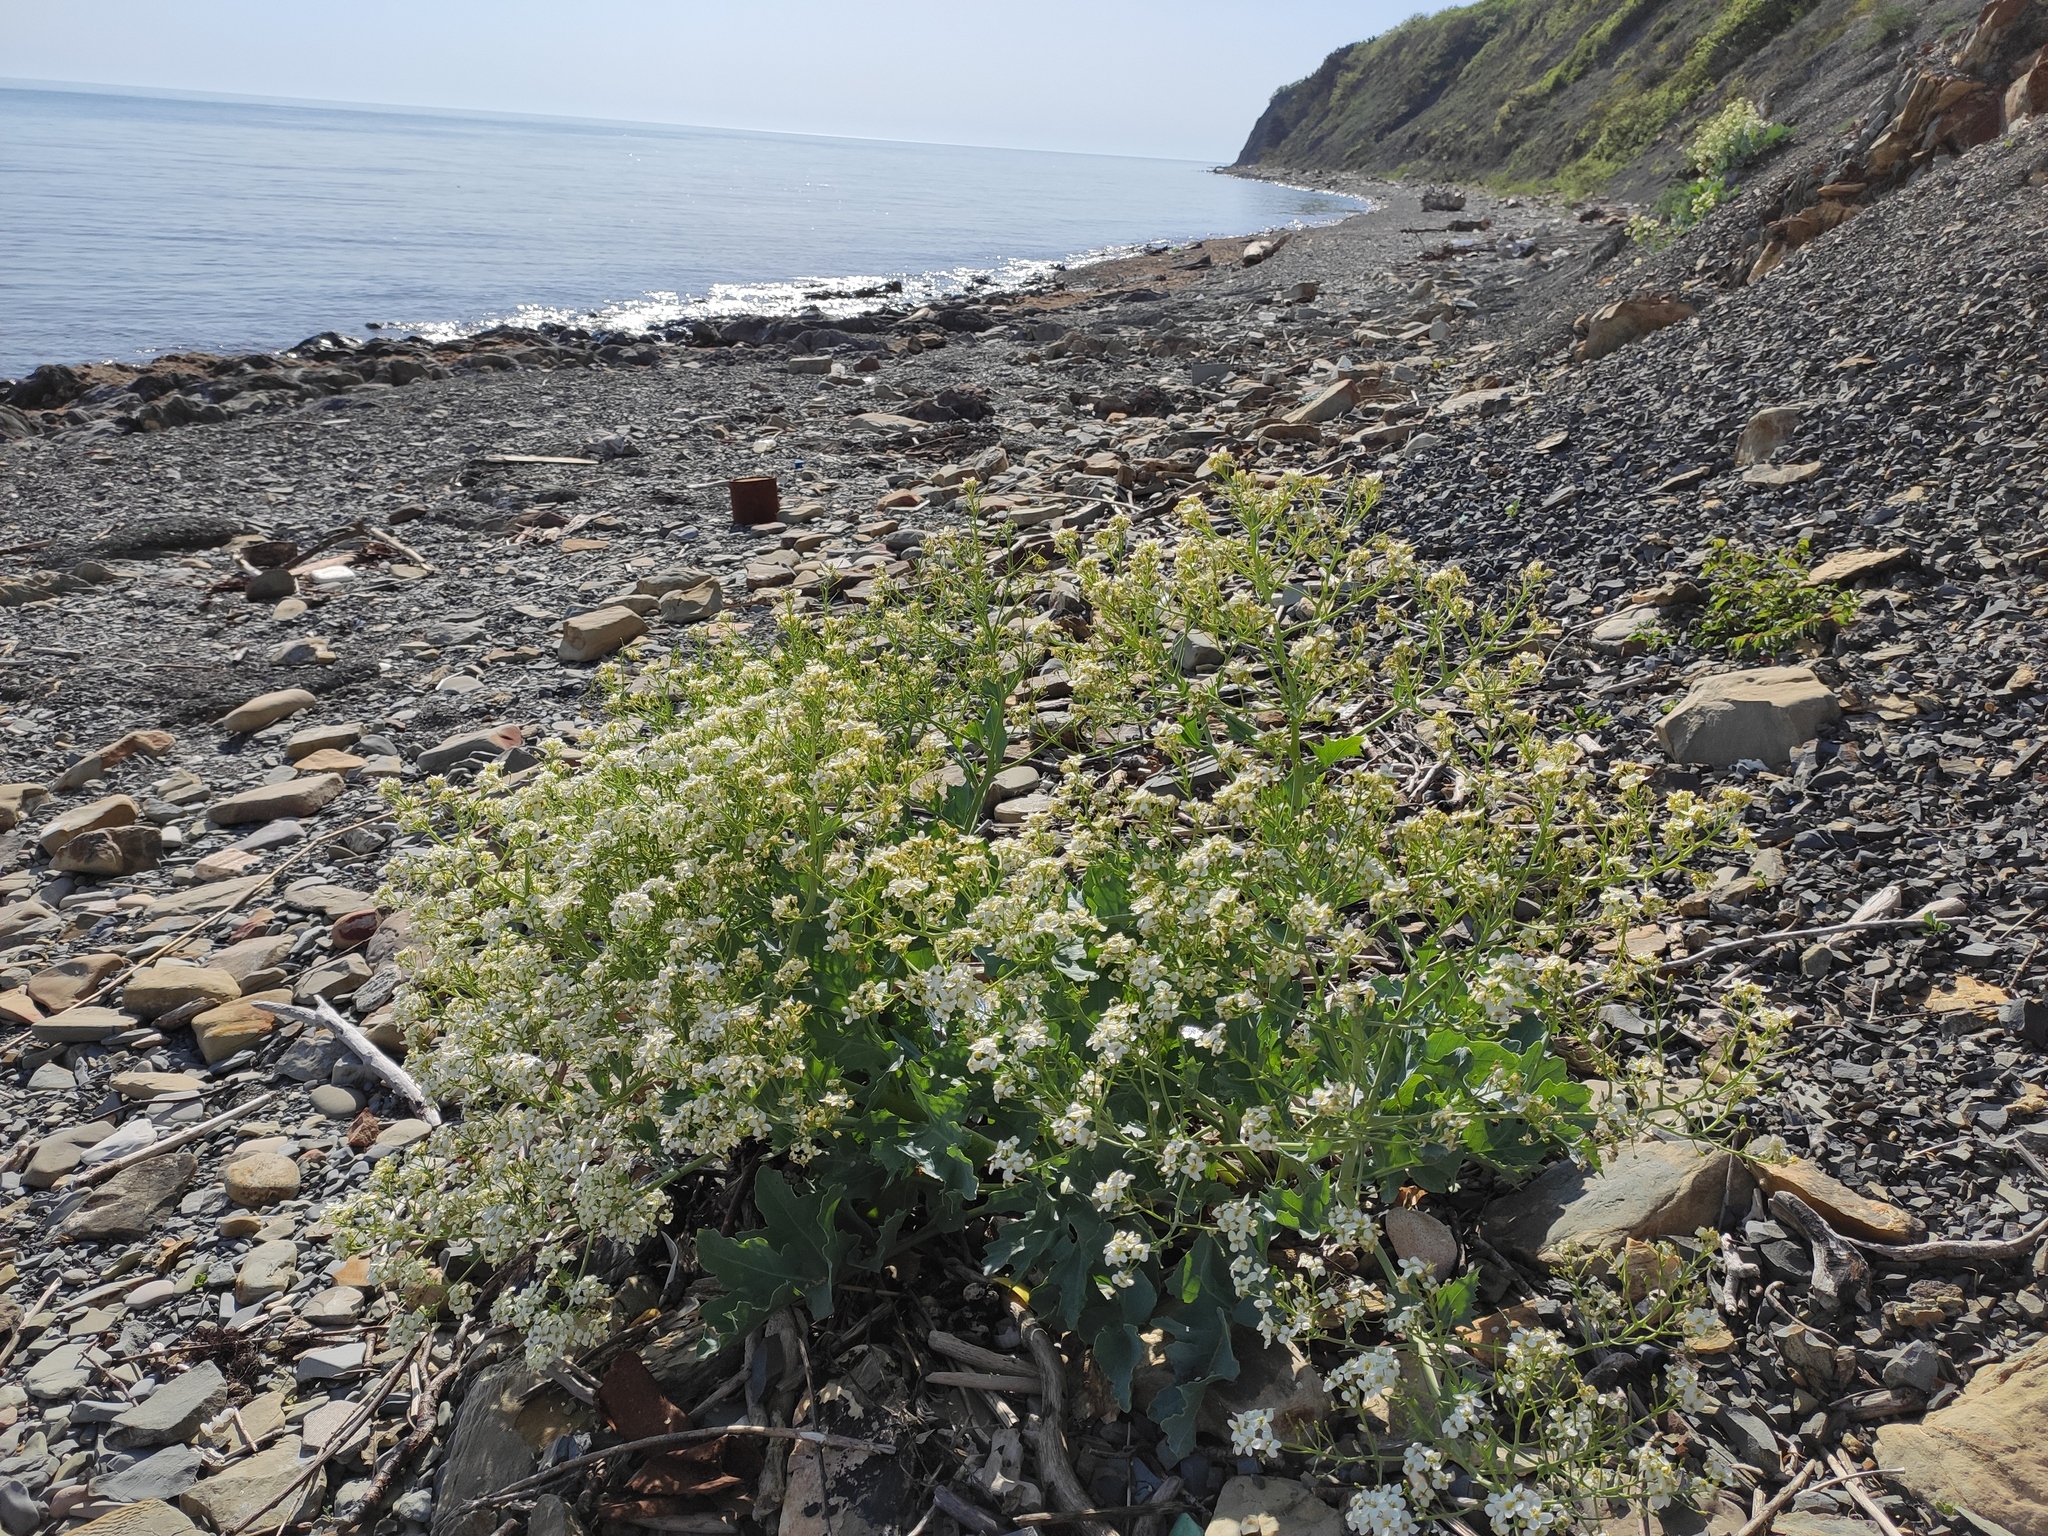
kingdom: Plantae
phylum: Tracheophyta
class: Magnoliopsida
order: Brassicales
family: Brassicaceae
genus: Crambe
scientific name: Crambe maritima
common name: Sea-kale
